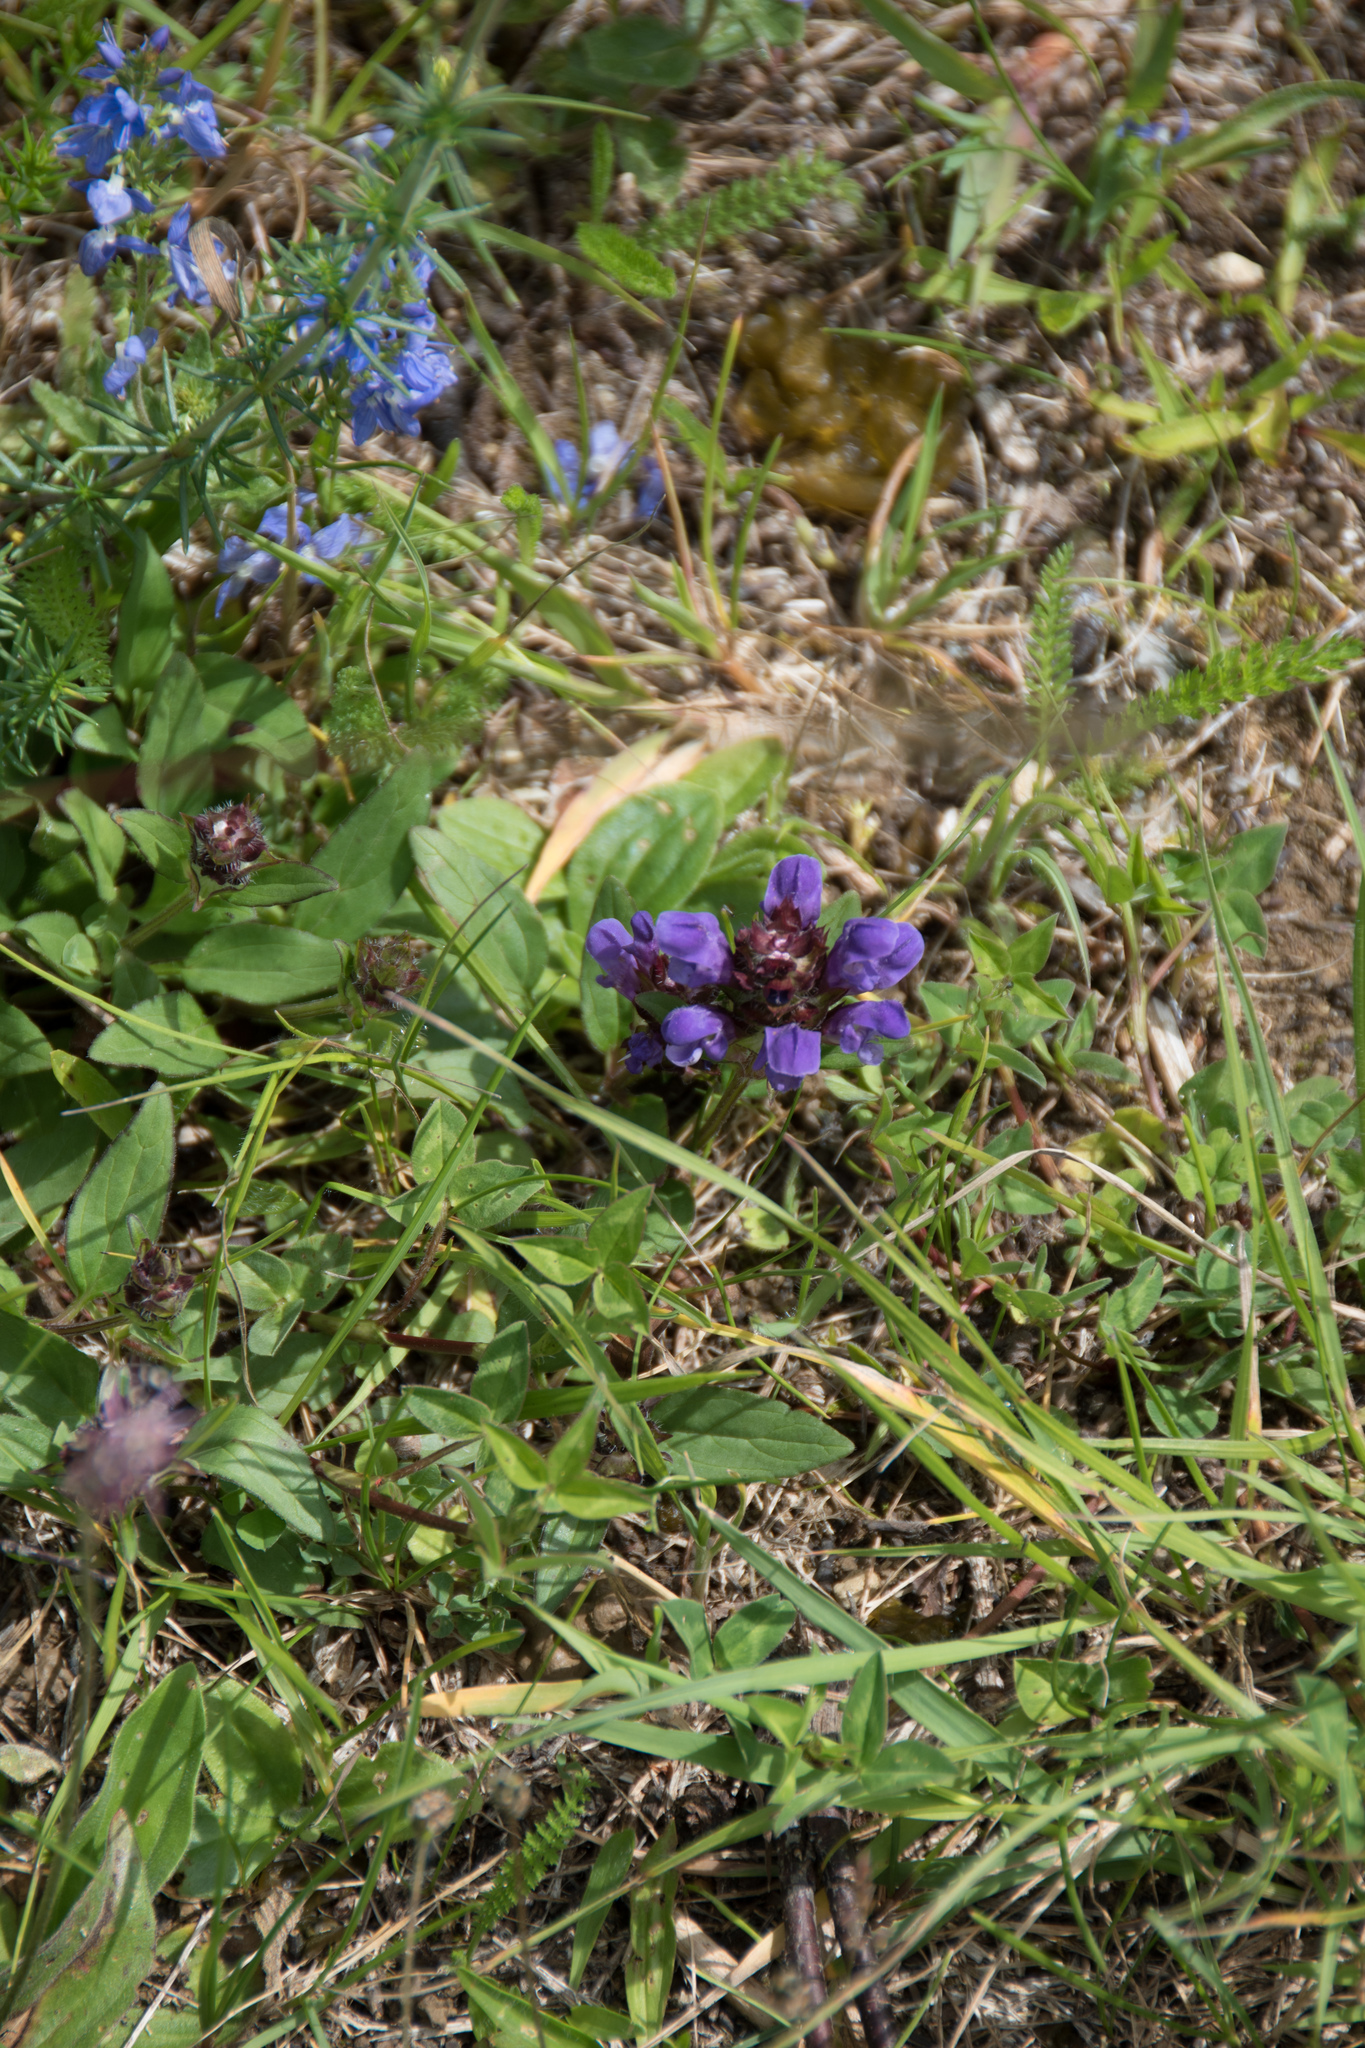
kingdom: Plantae
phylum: Tracheophyta
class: Magnoliopsida
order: Lamiales
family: Lamiaceae
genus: Prunella
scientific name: Prunella grandiflora
